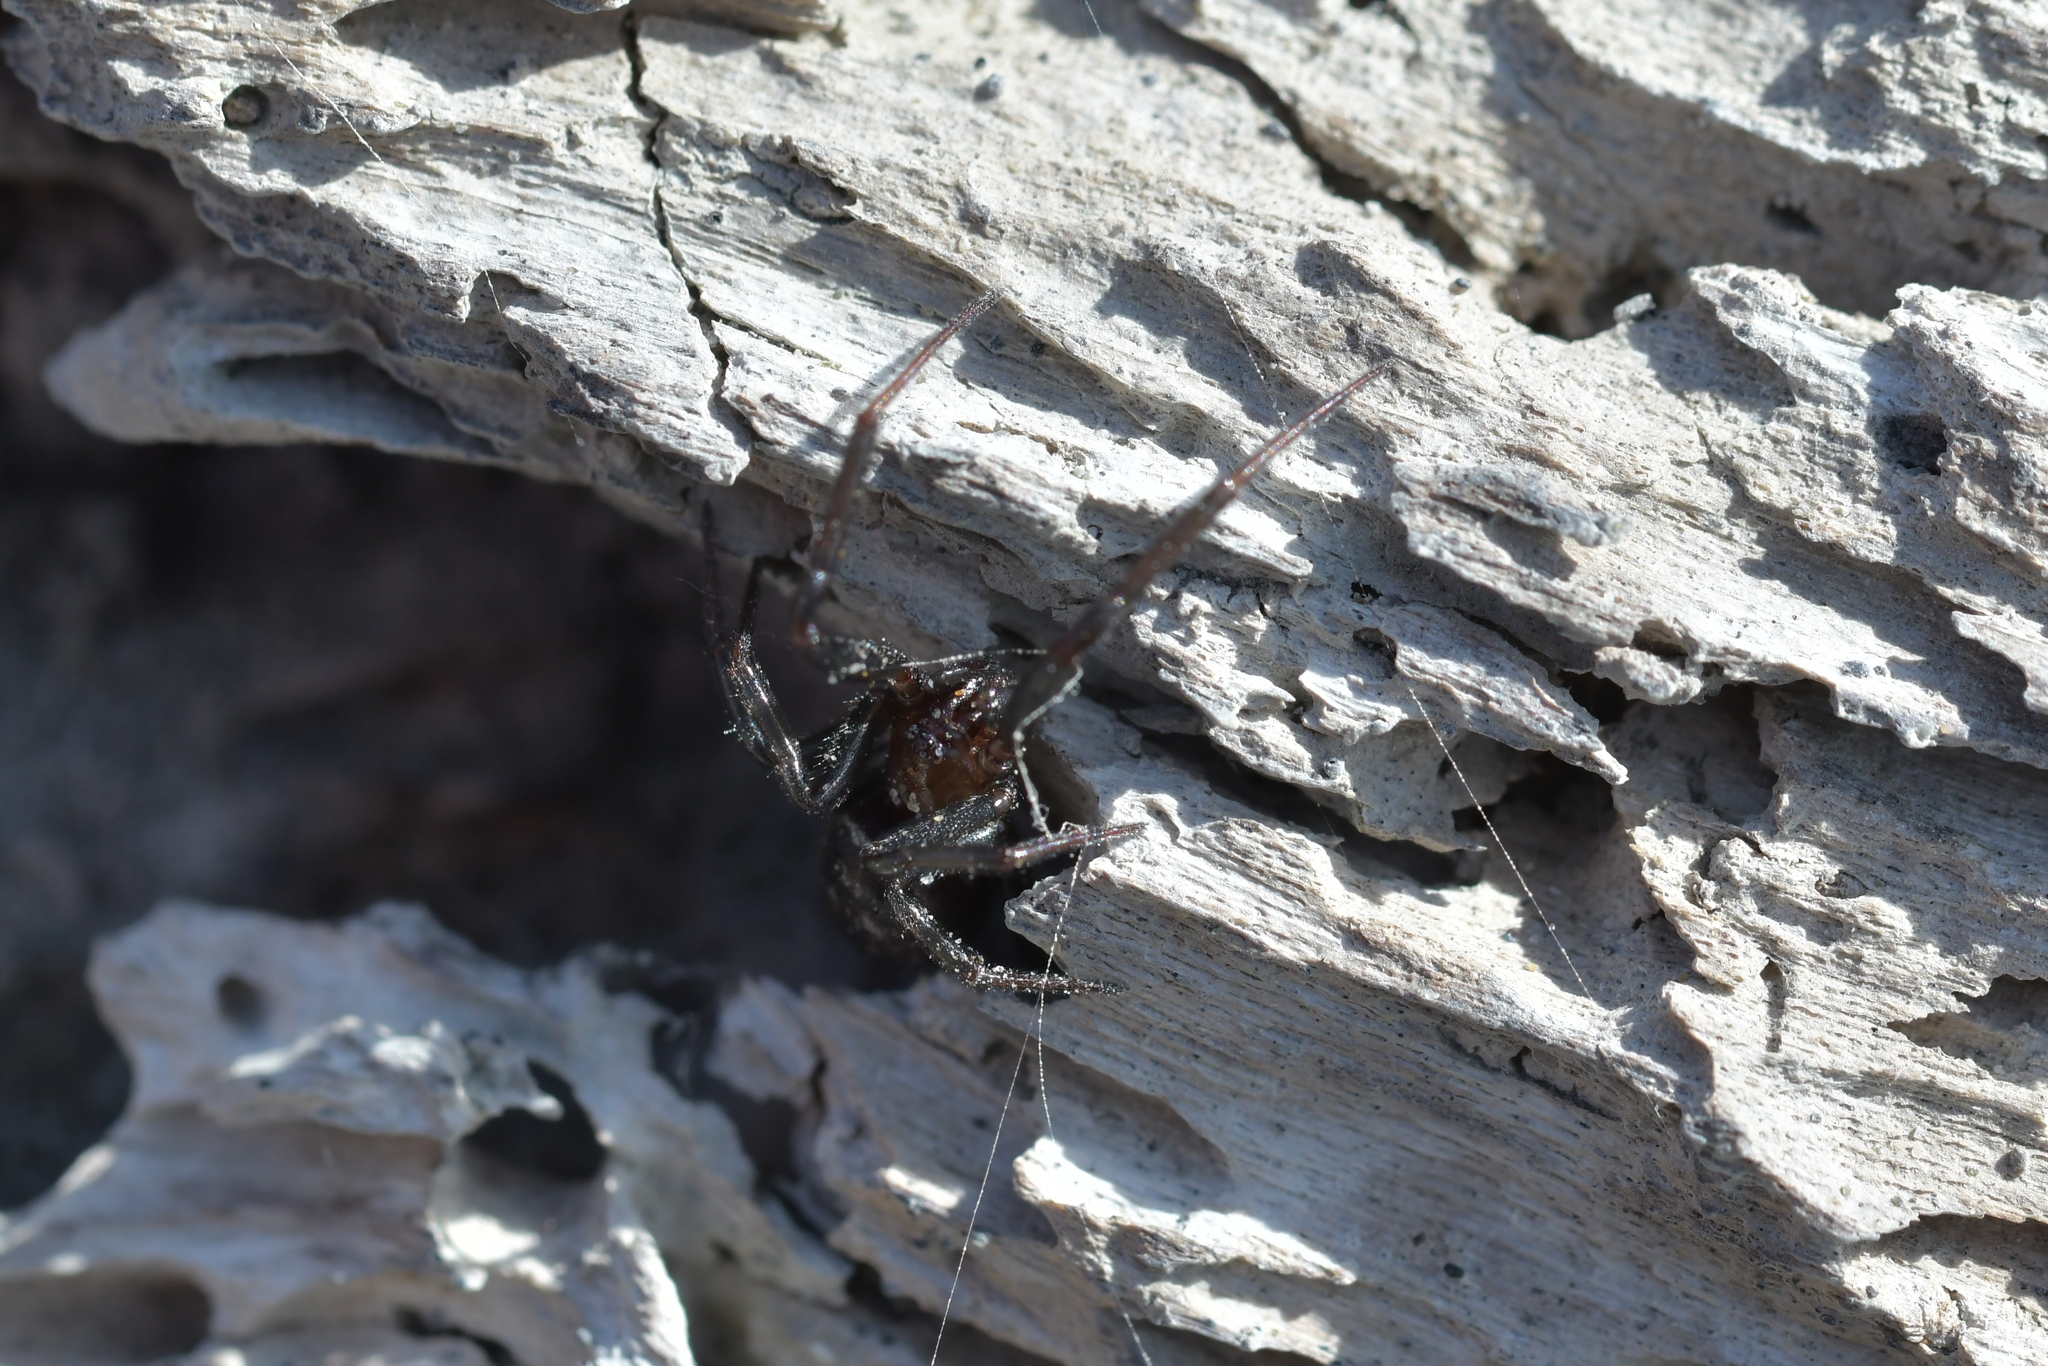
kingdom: Animalia
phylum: Arthropoda
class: Arachnida
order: Araneae
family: Theridiidae
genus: Steatoda
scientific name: Steatoda capensis
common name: Cobweb weaver
